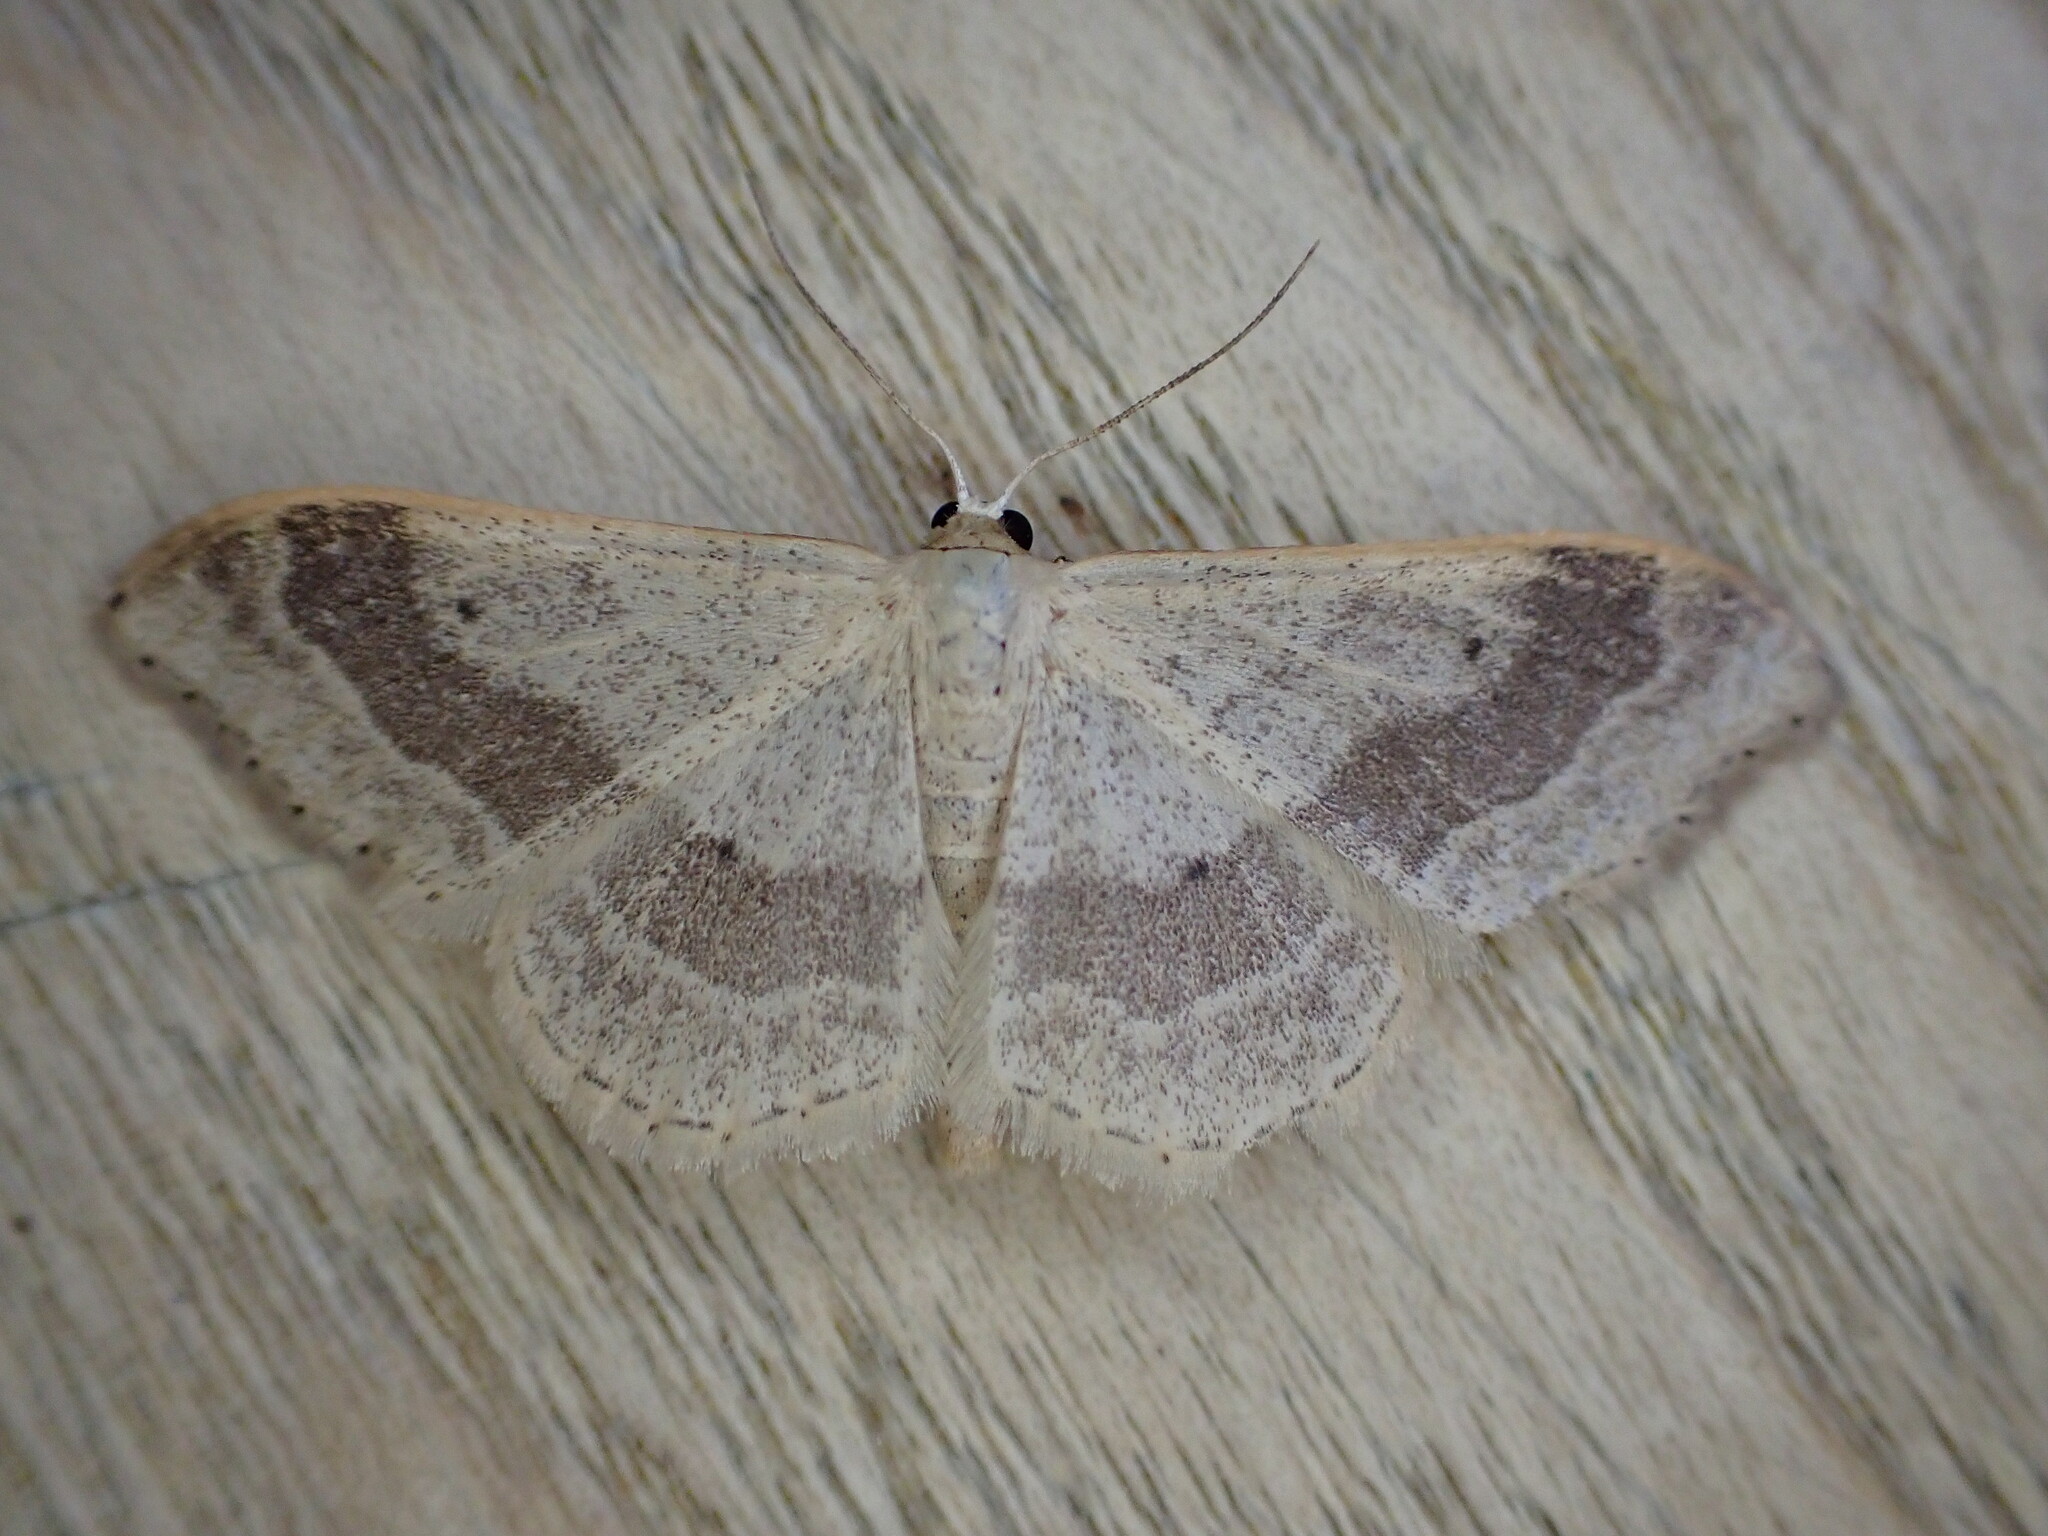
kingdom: Animalia
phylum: Arthropoda
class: Insecta
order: Lepidoptera
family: Geometridae
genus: Idaea
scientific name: Idaea aversata
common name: Riband wave
